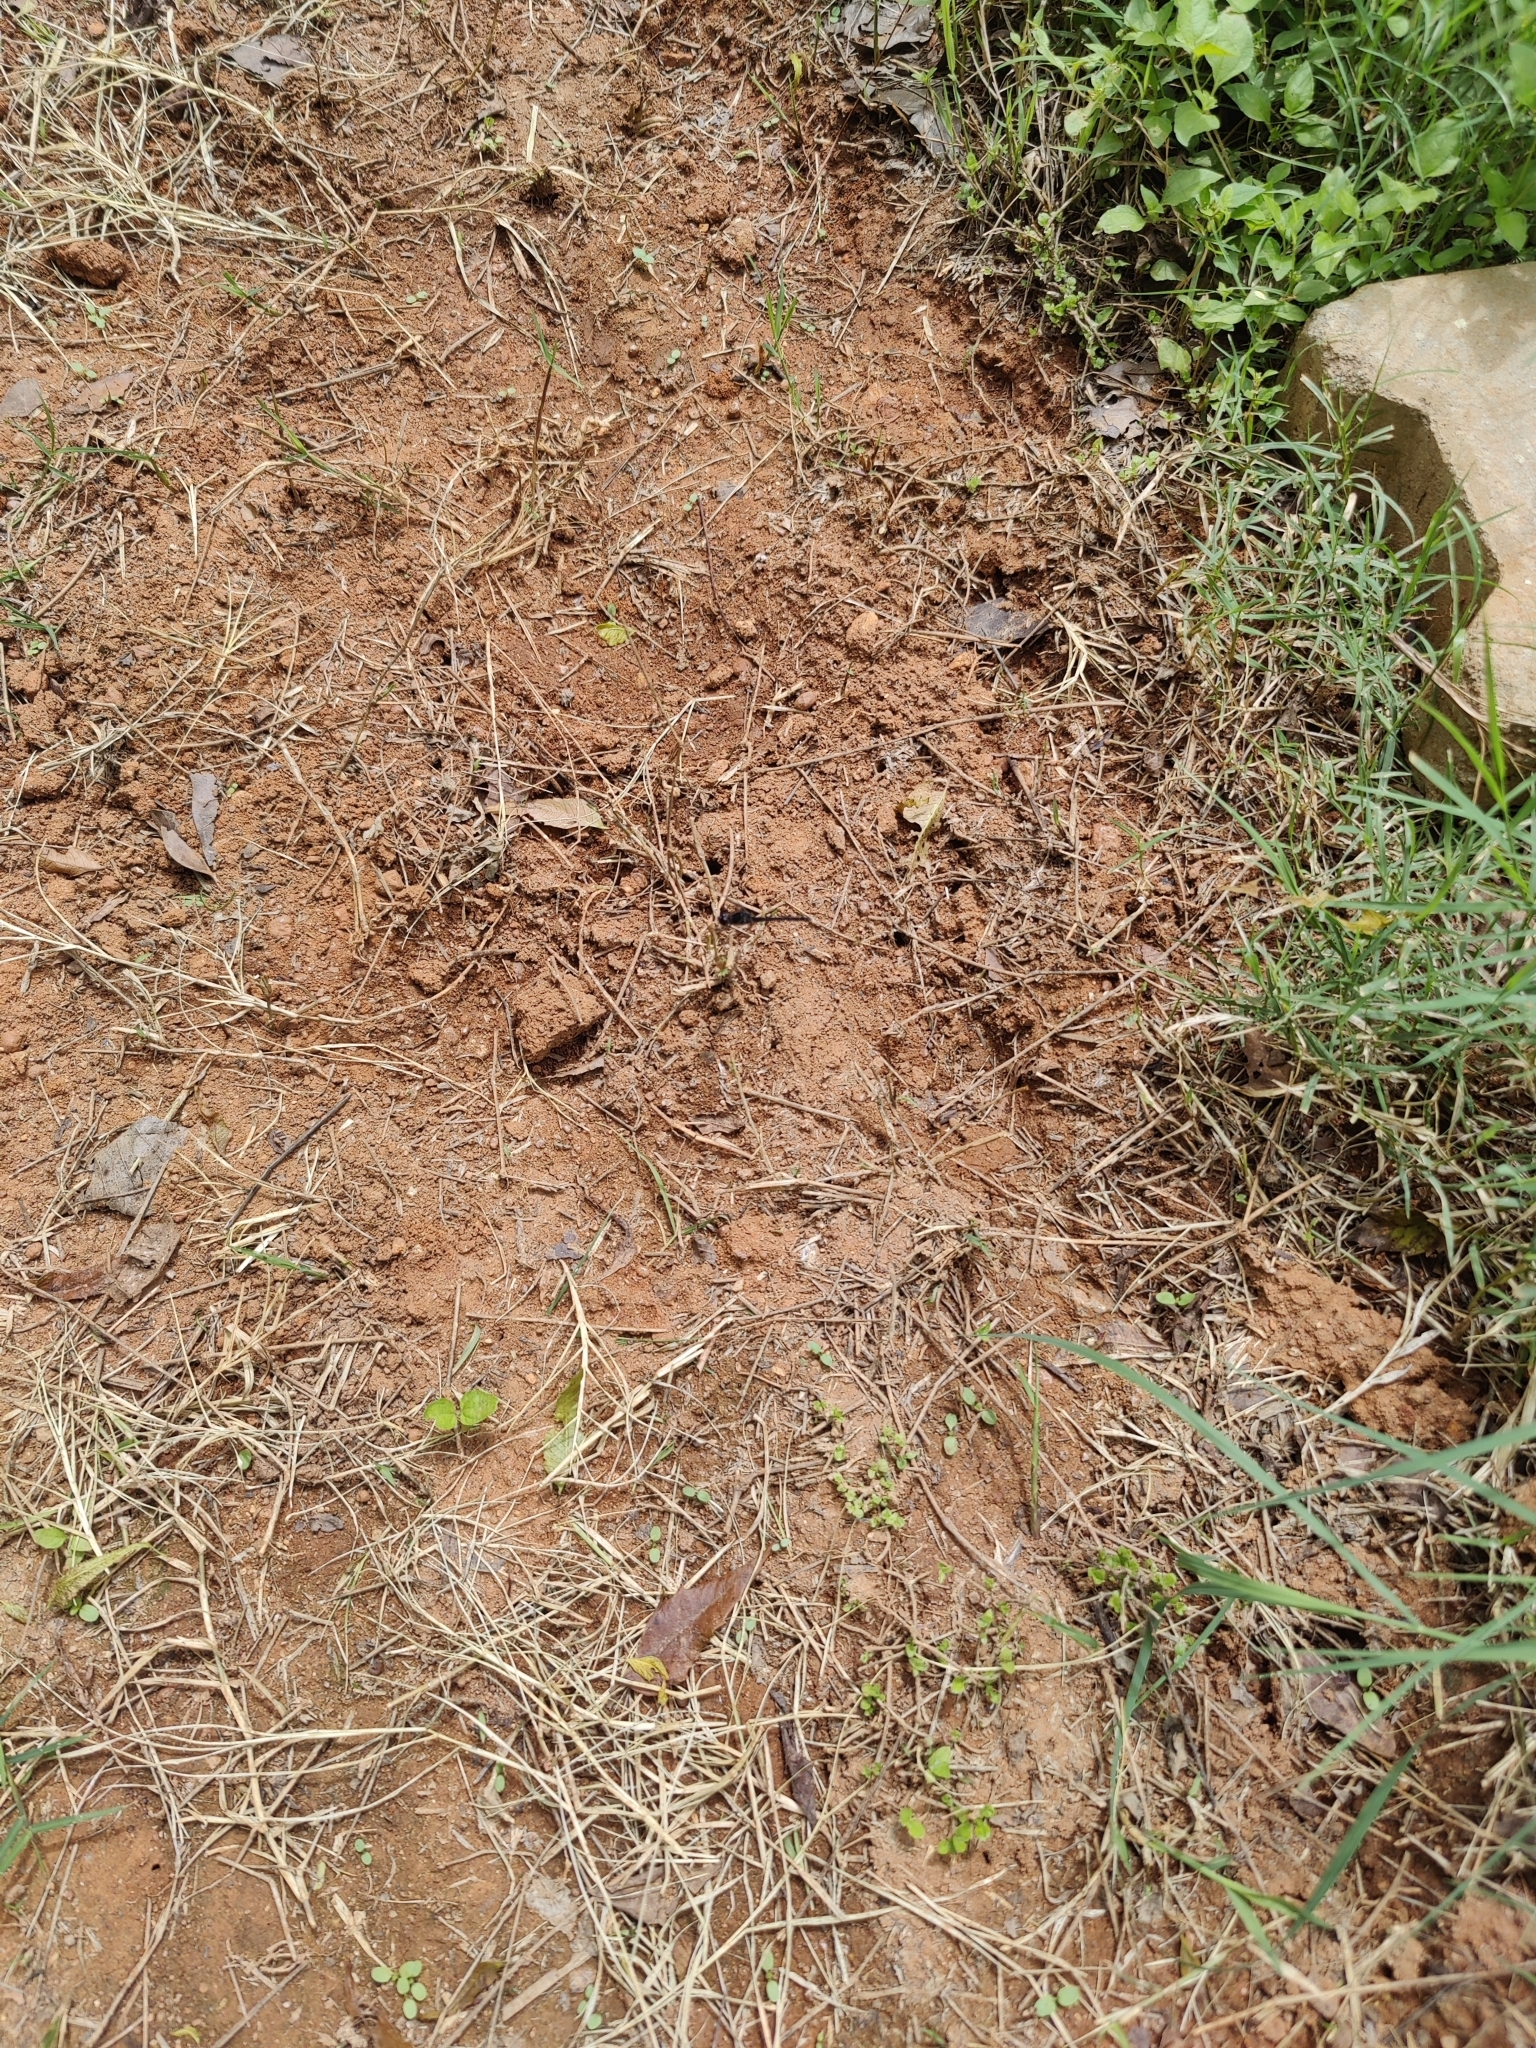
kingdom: Animalia
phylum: Arthropoda
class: Insecta
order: Odonata
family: Libellulidae
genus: Diplacodes
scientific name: Diplacodes lefebvrii
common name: Black percher
